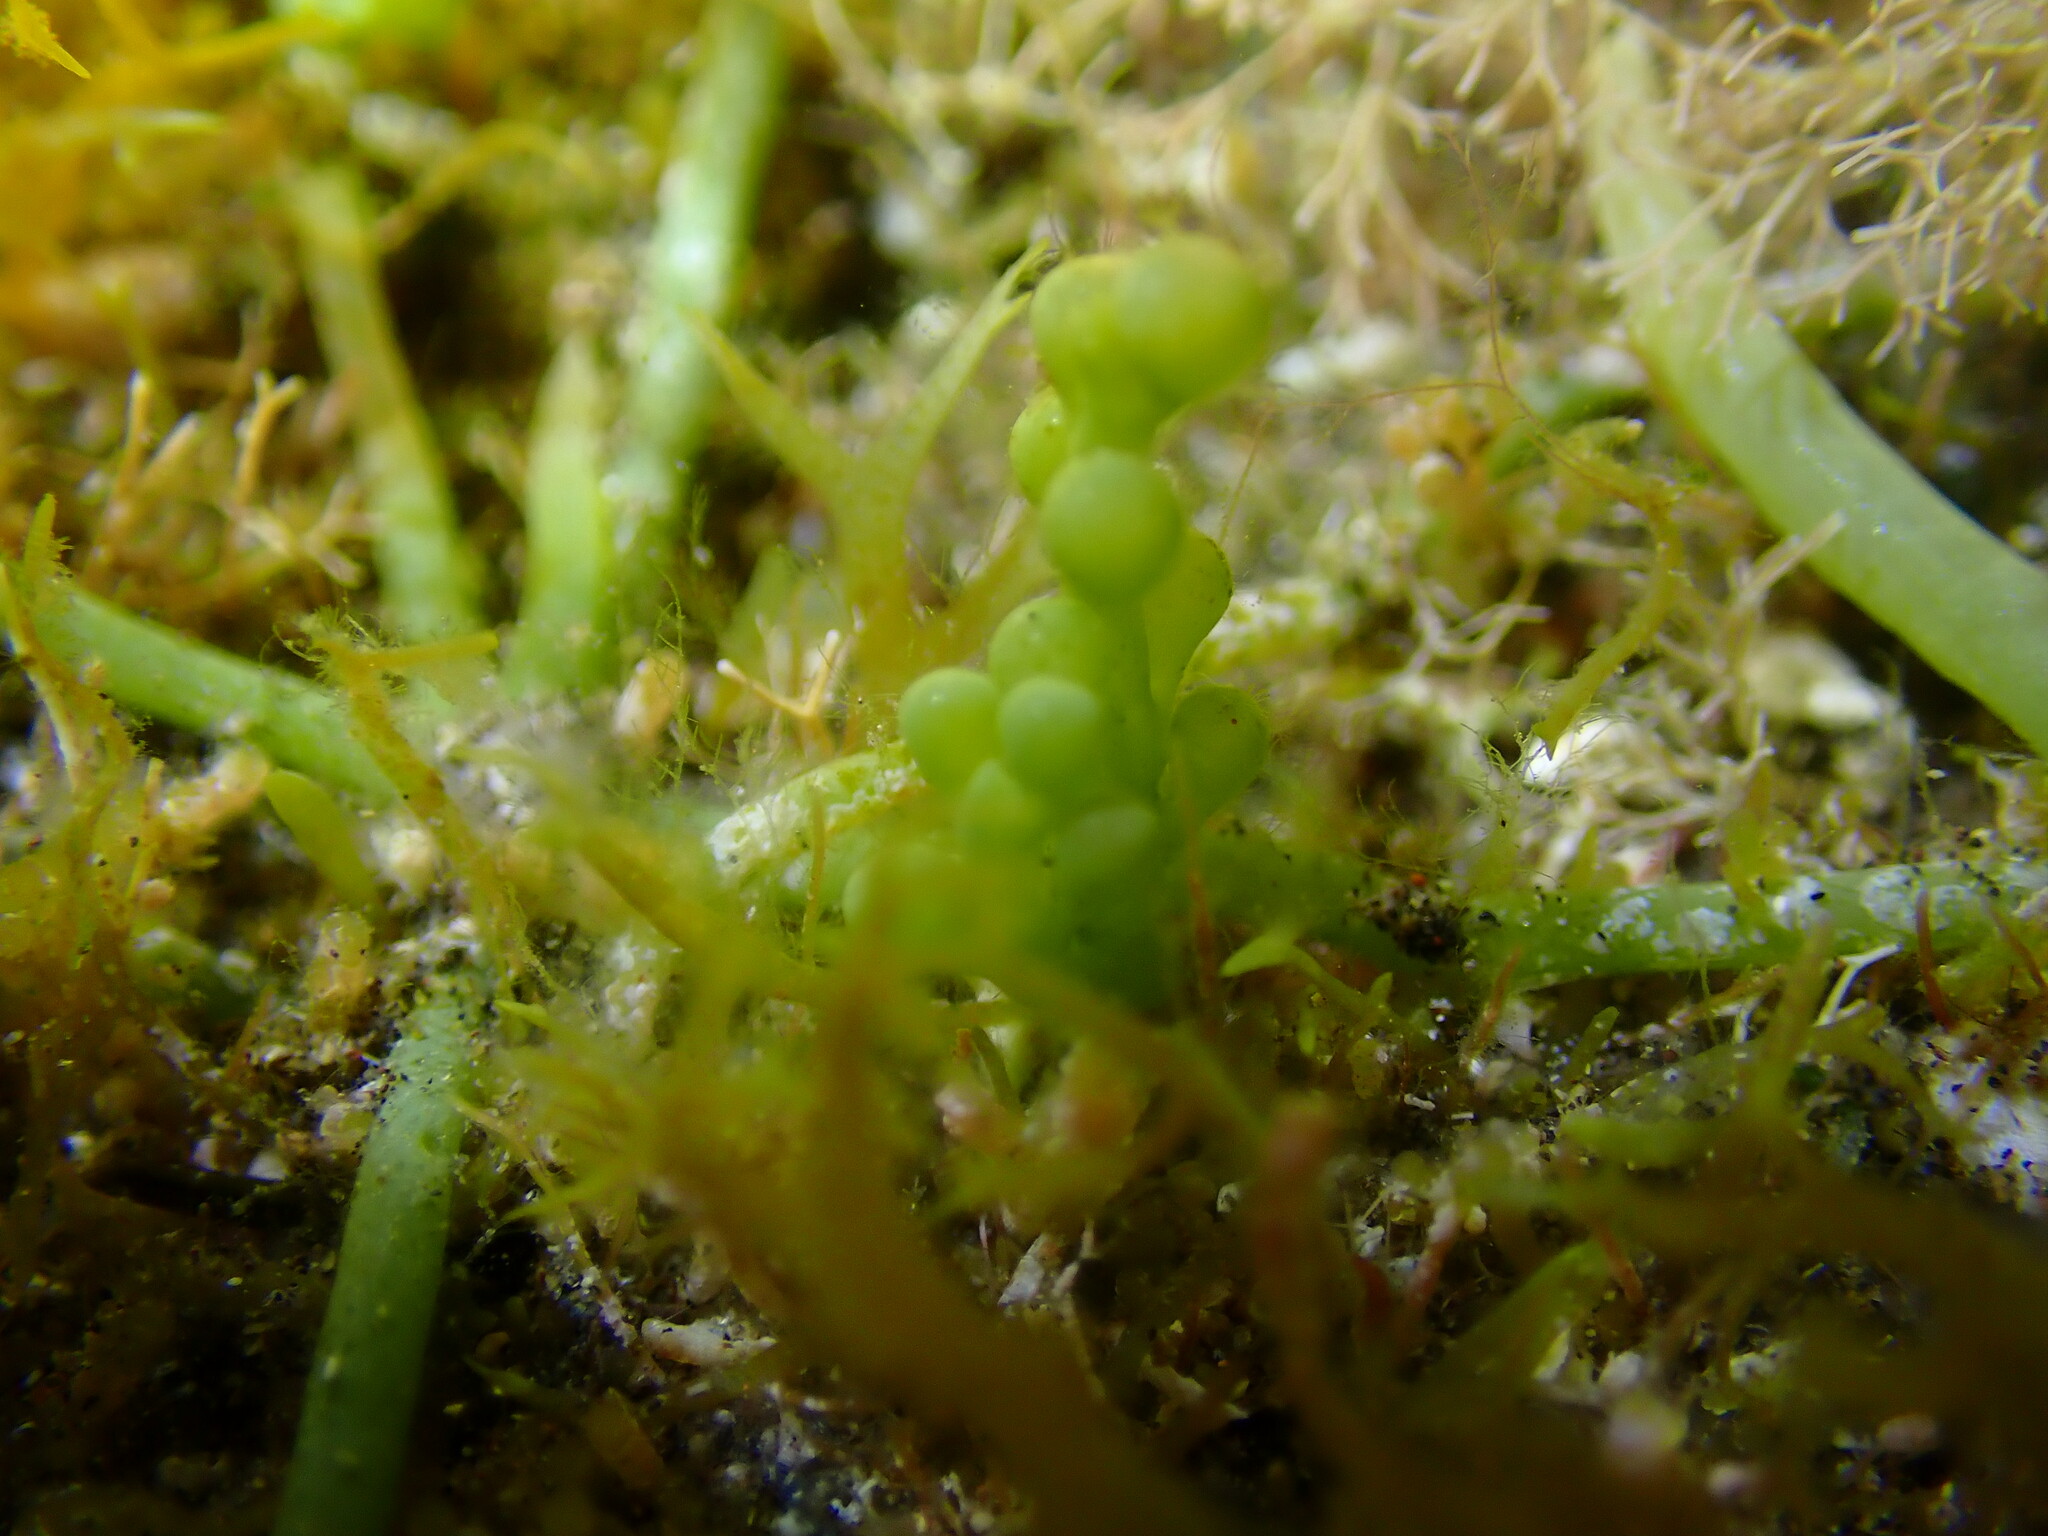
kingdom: Plantae
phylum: Chlorophyta
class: Ulvophyceae
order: Bryopsidales
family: Caulerpaceae
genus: Caulerpa
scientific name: Caulerpa cylindracea
